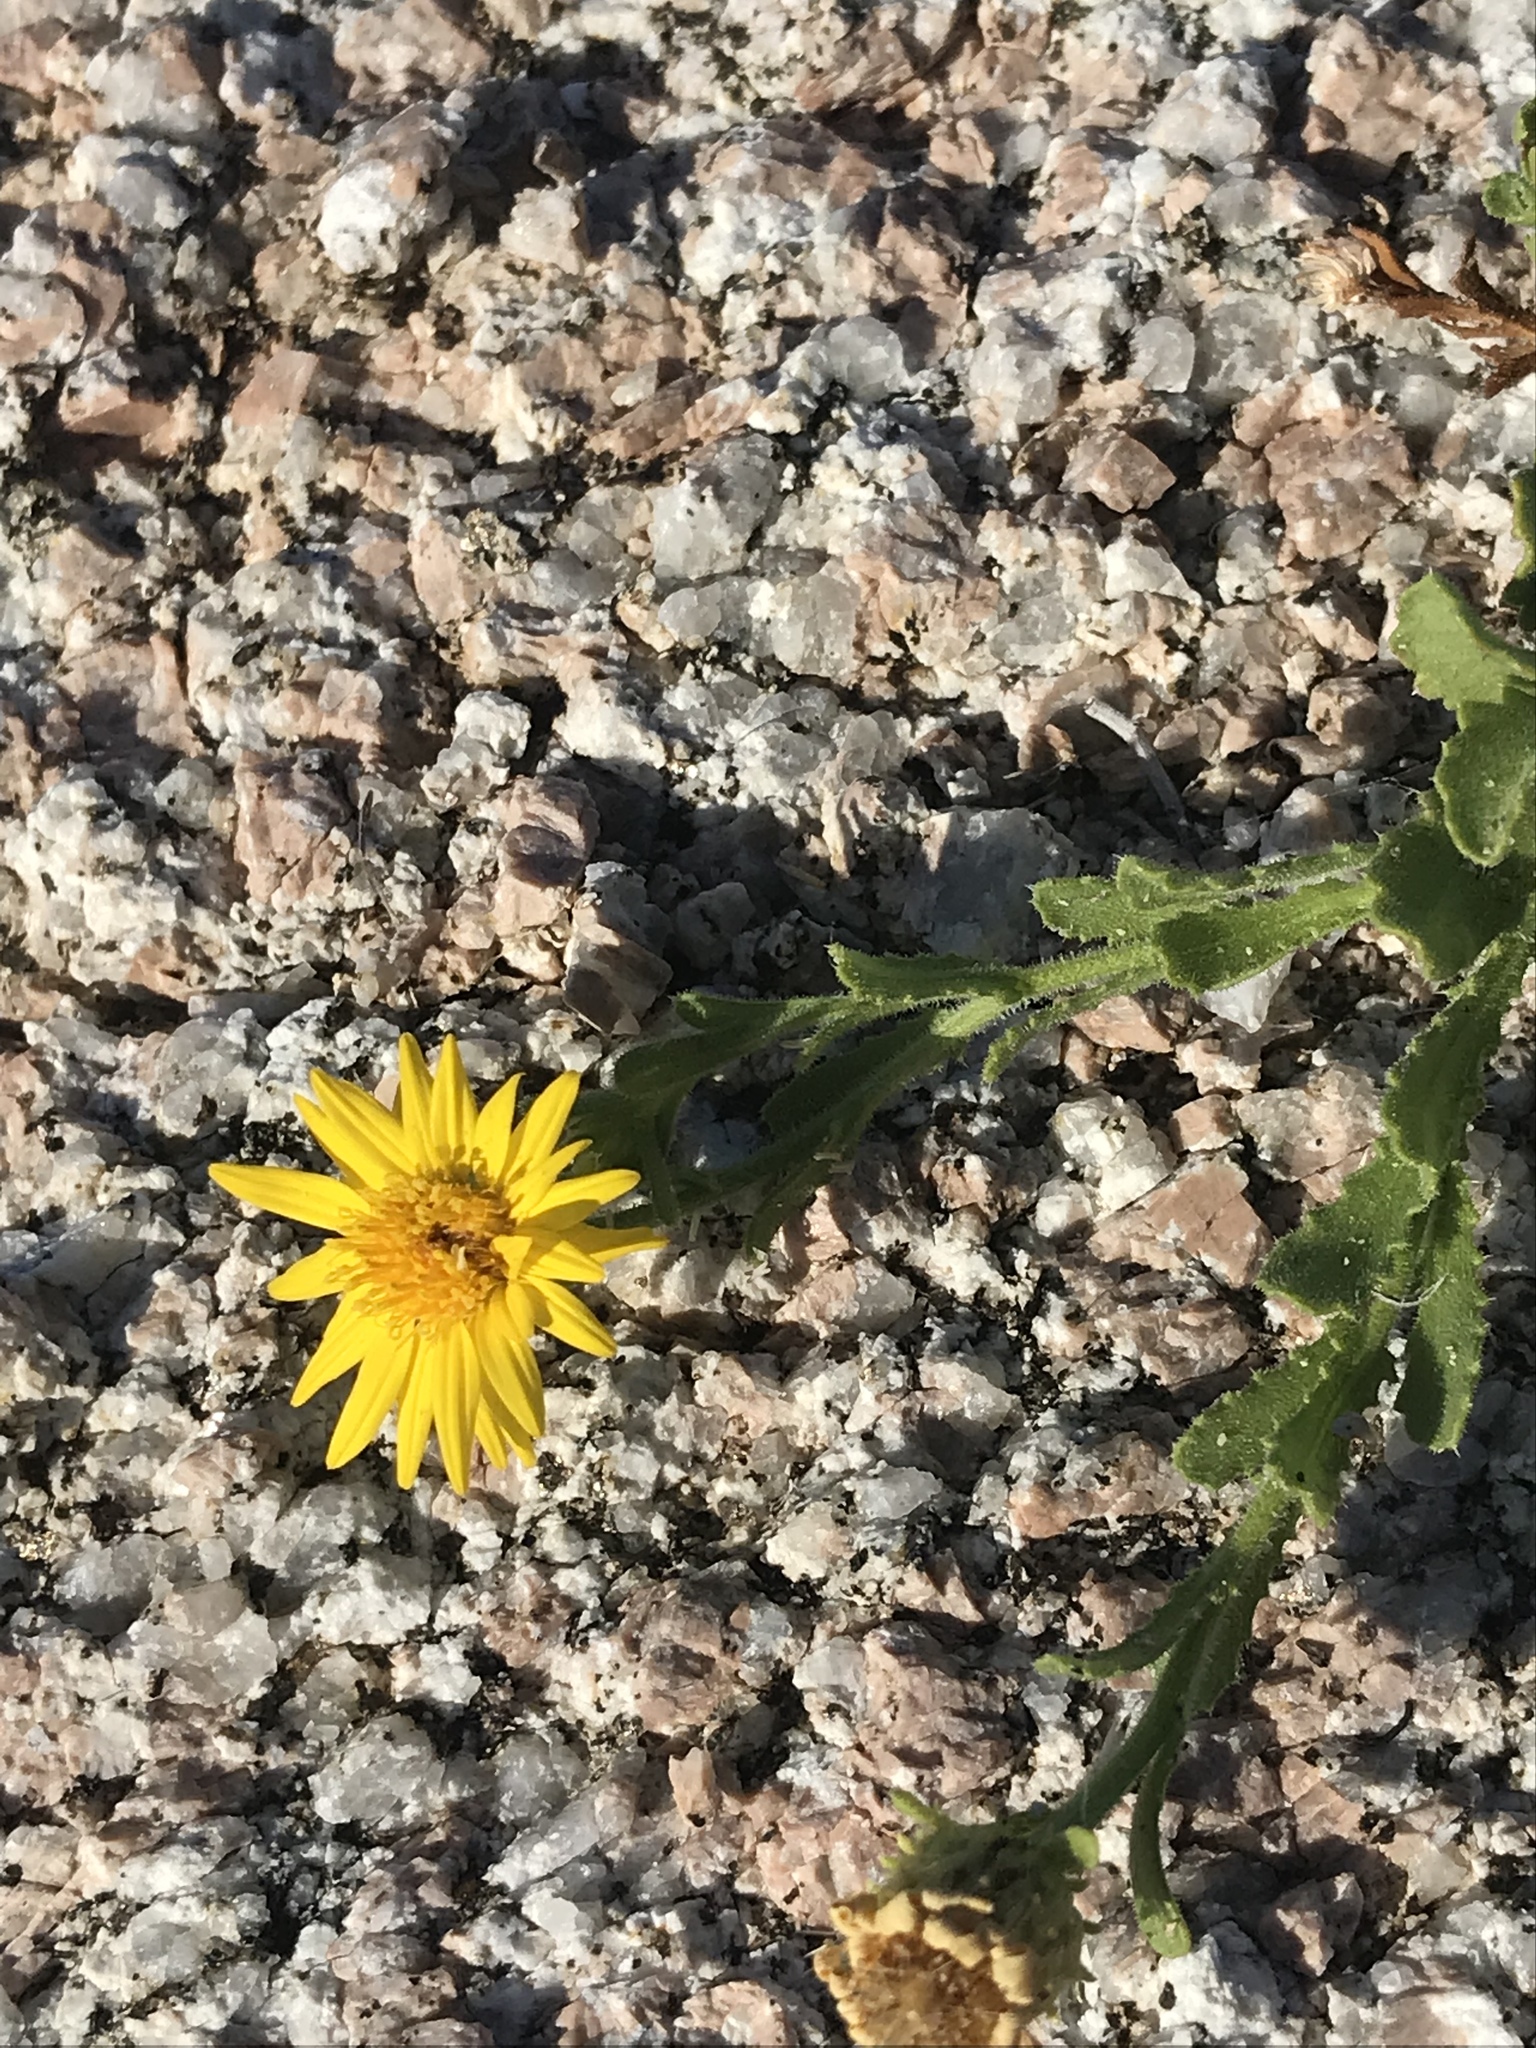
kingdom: Plantae
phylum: Tracheophyta
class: Magnoliopsida
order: Asterales
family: Asteraceae
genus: Xanthisma
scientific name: Xanthisma arenarium
